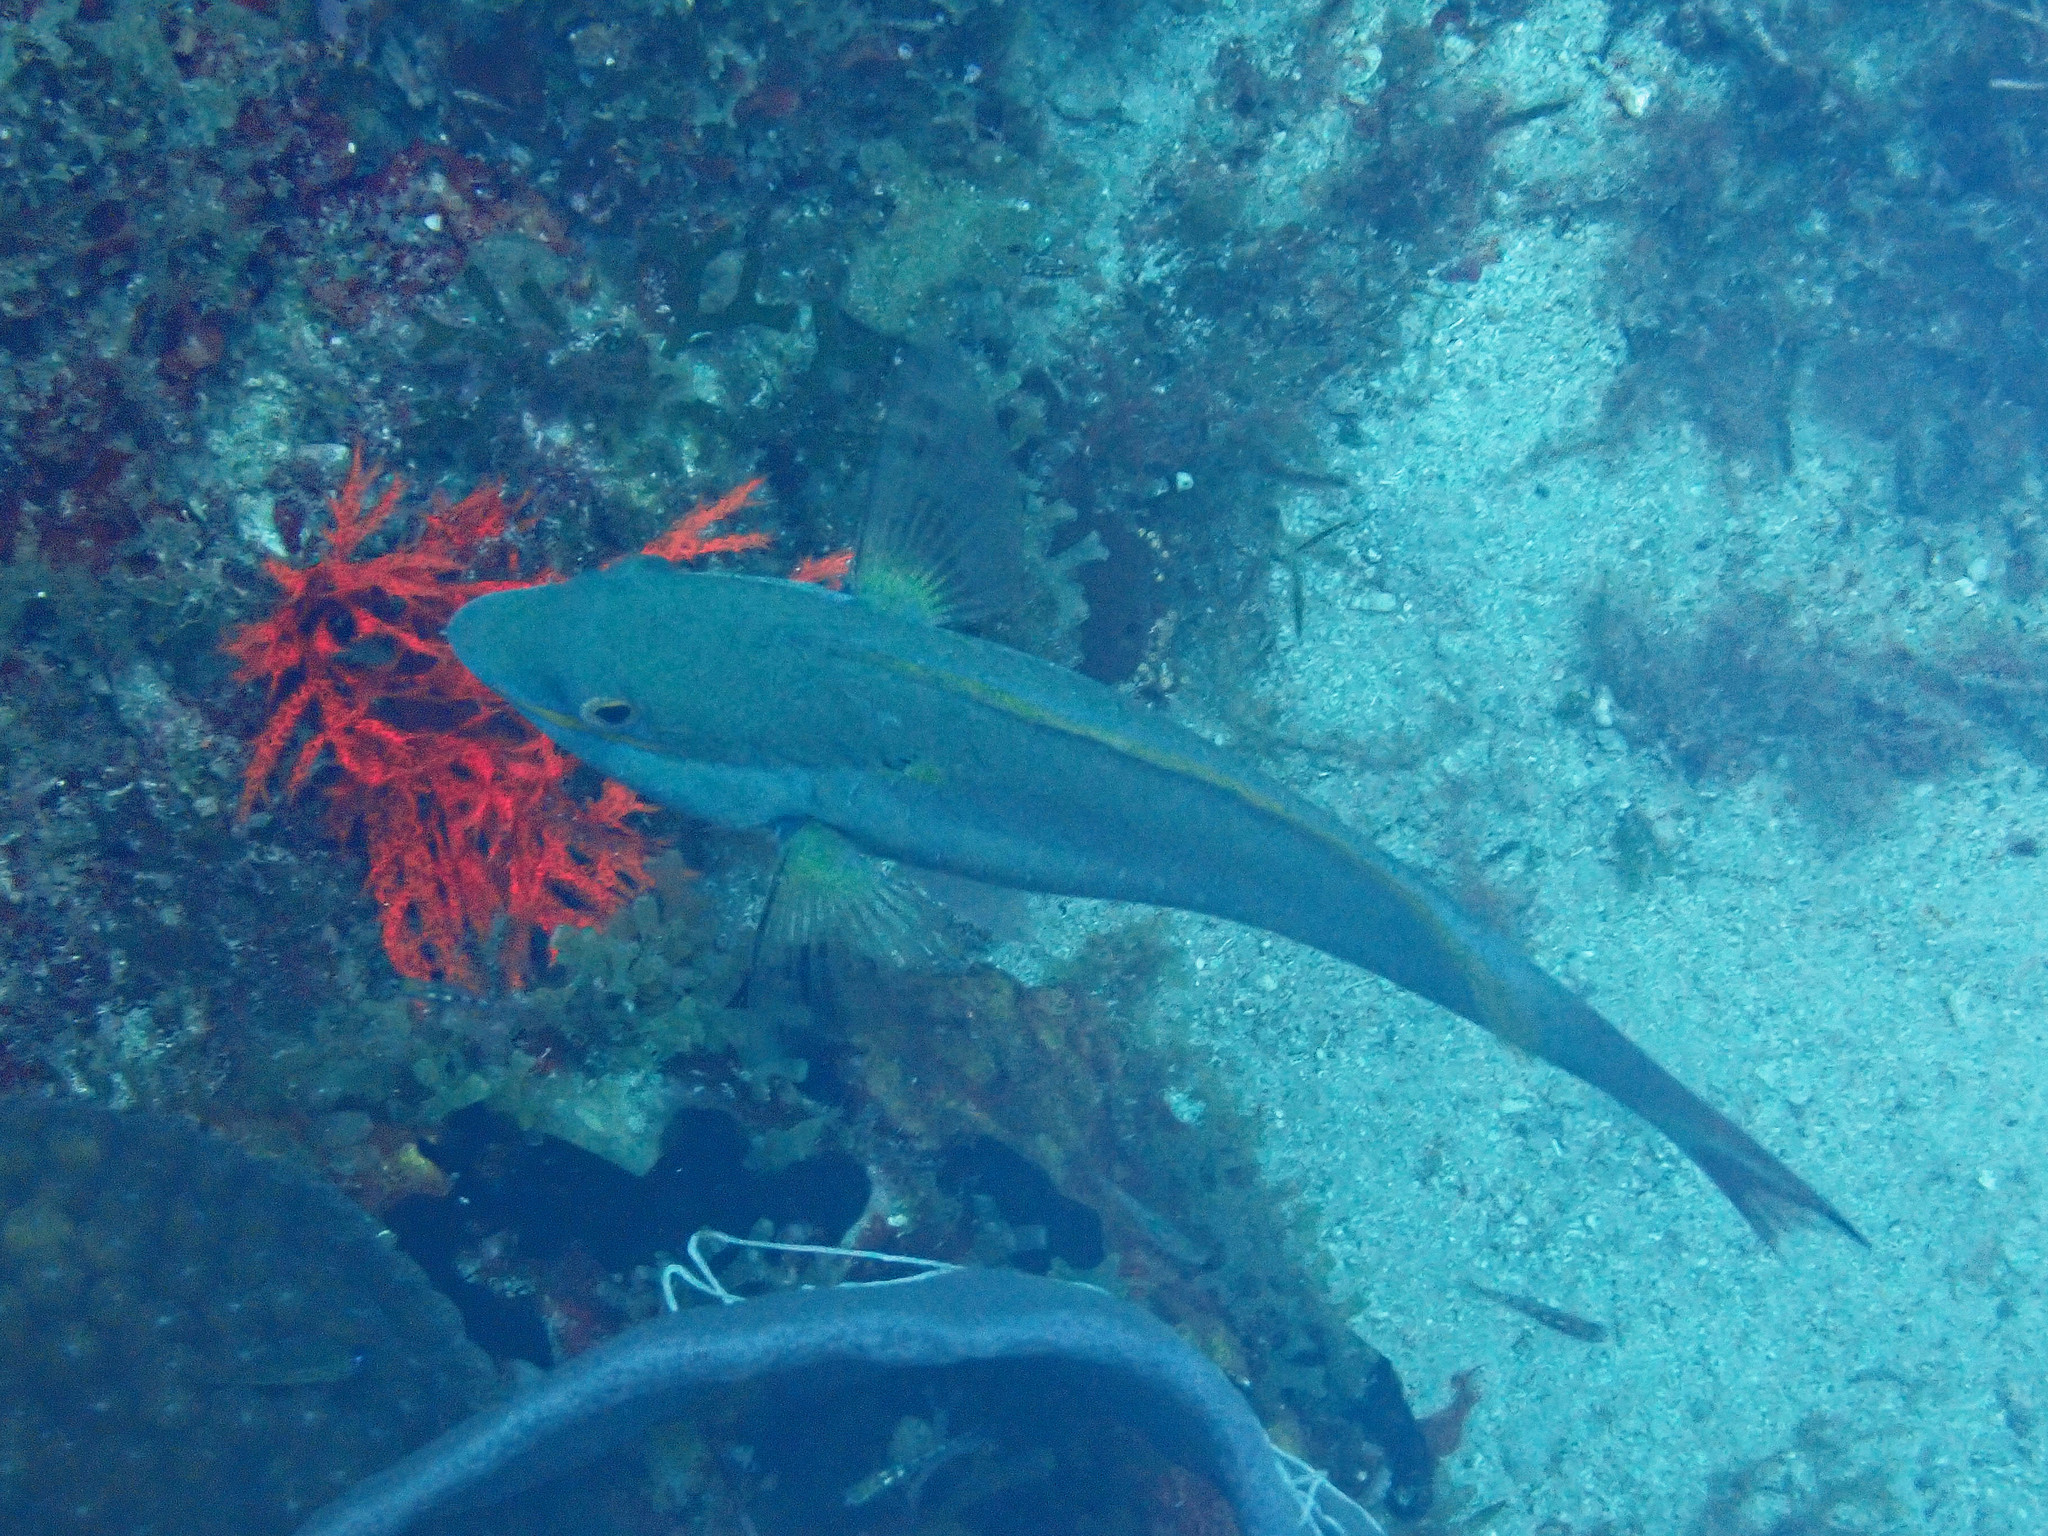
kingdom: Animalia
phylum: Chordata
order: Perciformes
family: Scaridae
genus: Sparisoma
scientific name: Sparisoma aurofrenatum
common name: Redband parrotfish
